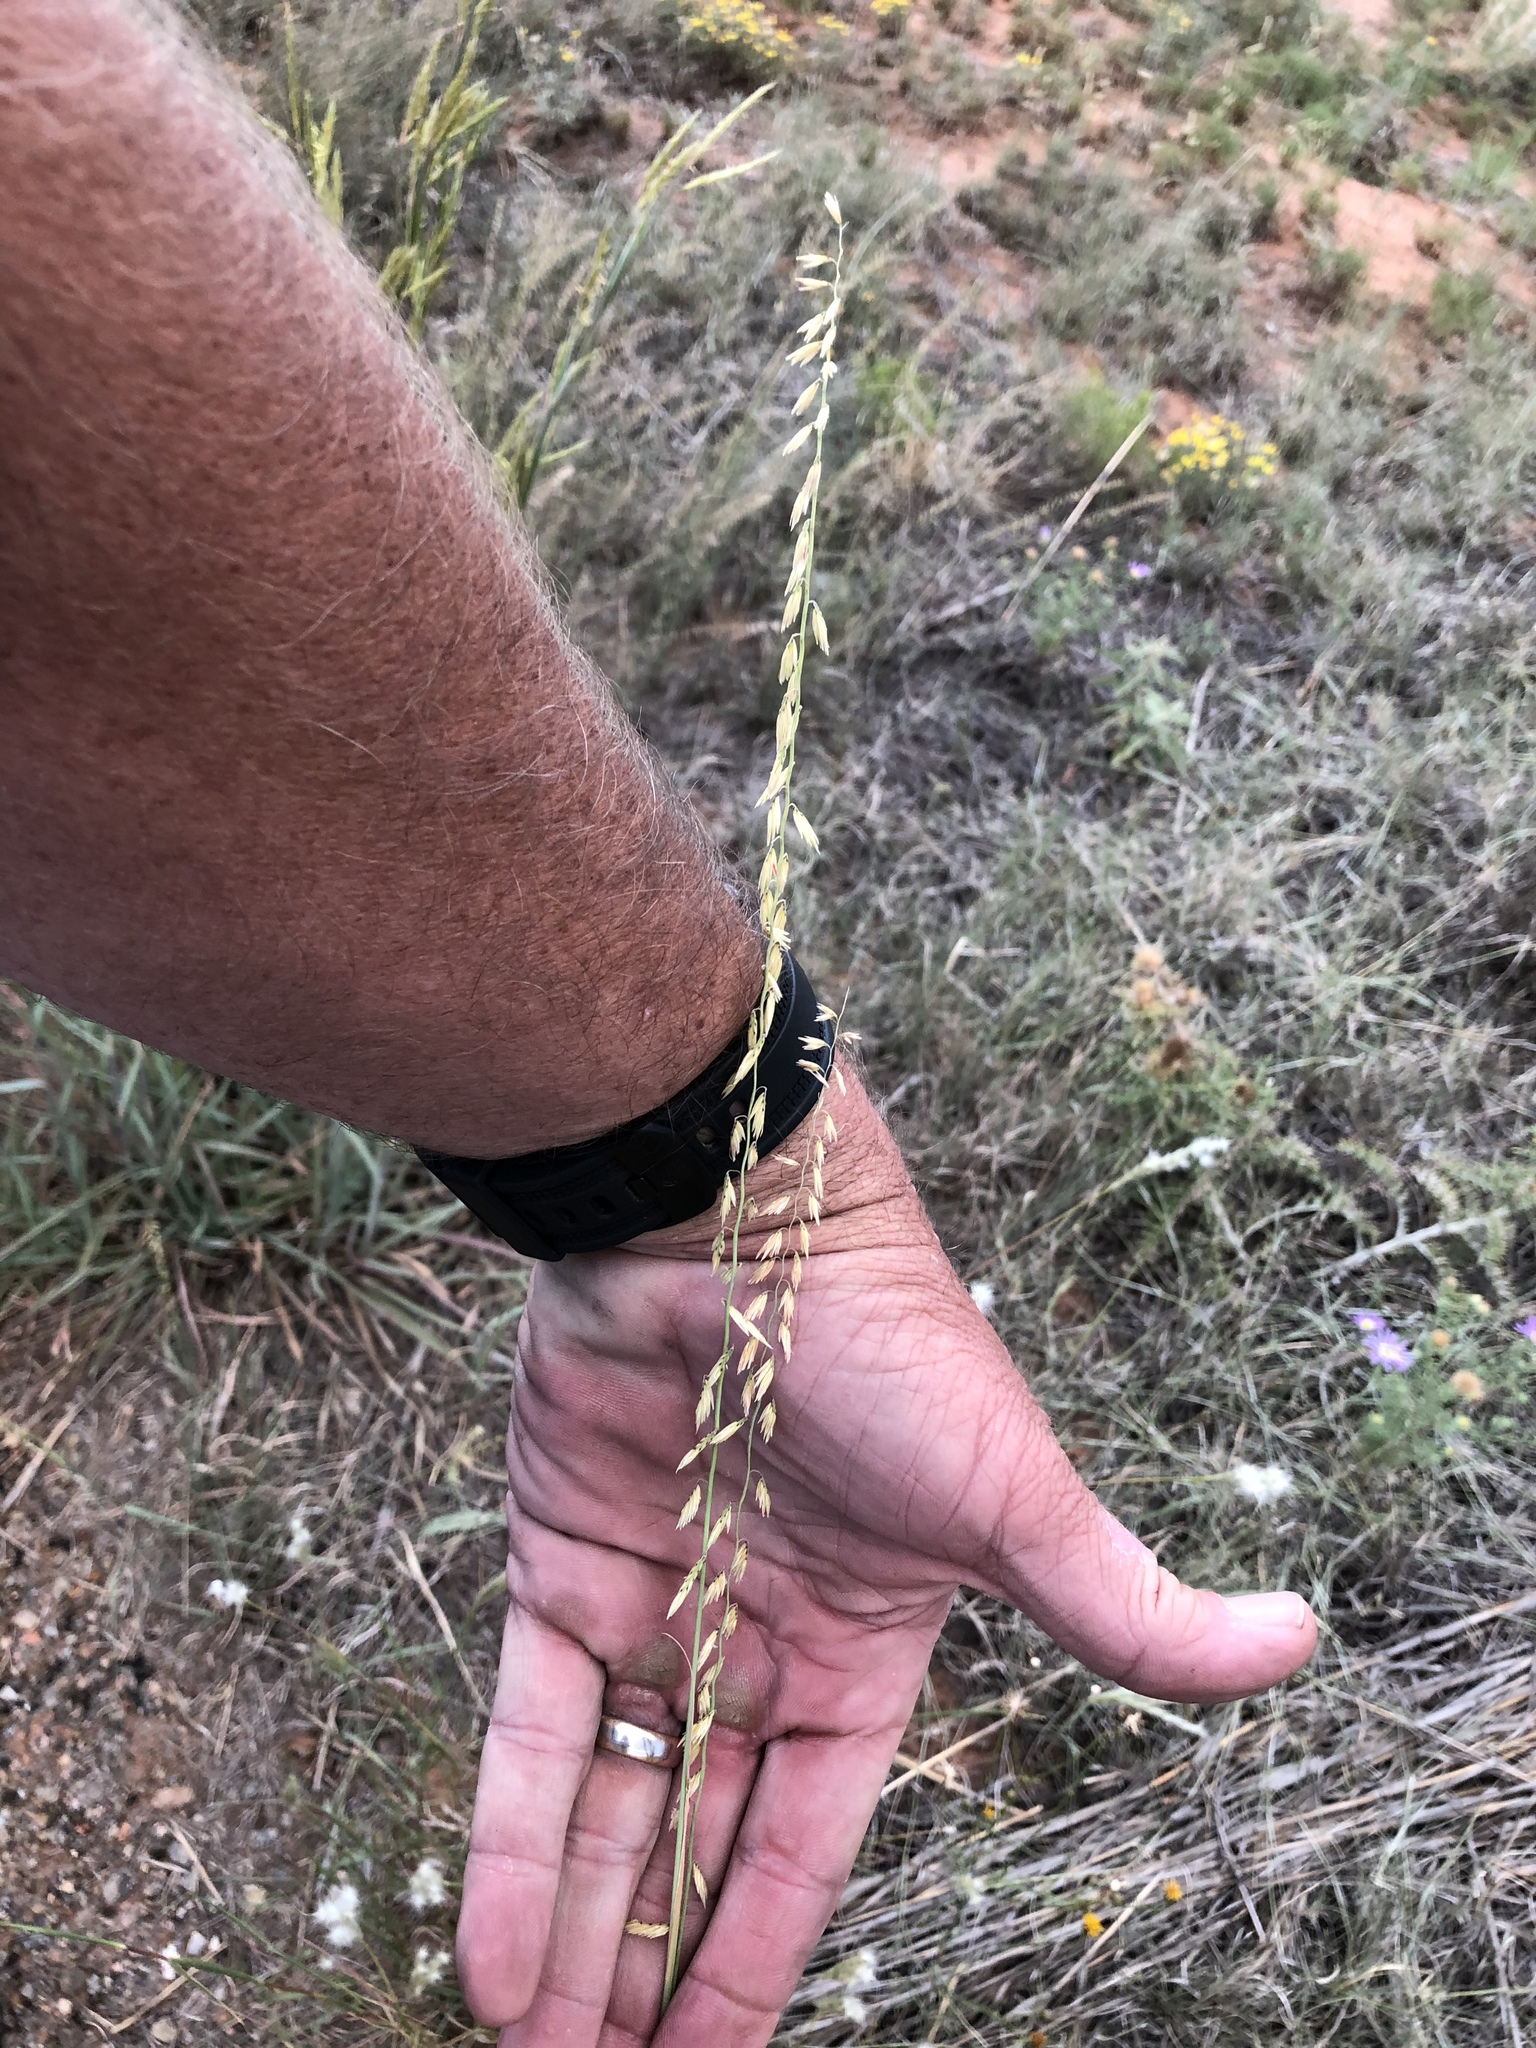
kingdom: Plantae
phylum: Tracheophyta
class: Liliopsida
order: Poales
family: Poaceae
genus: Bouteloua
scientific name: Bouteloua curtipendula
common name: Side-oats grama
